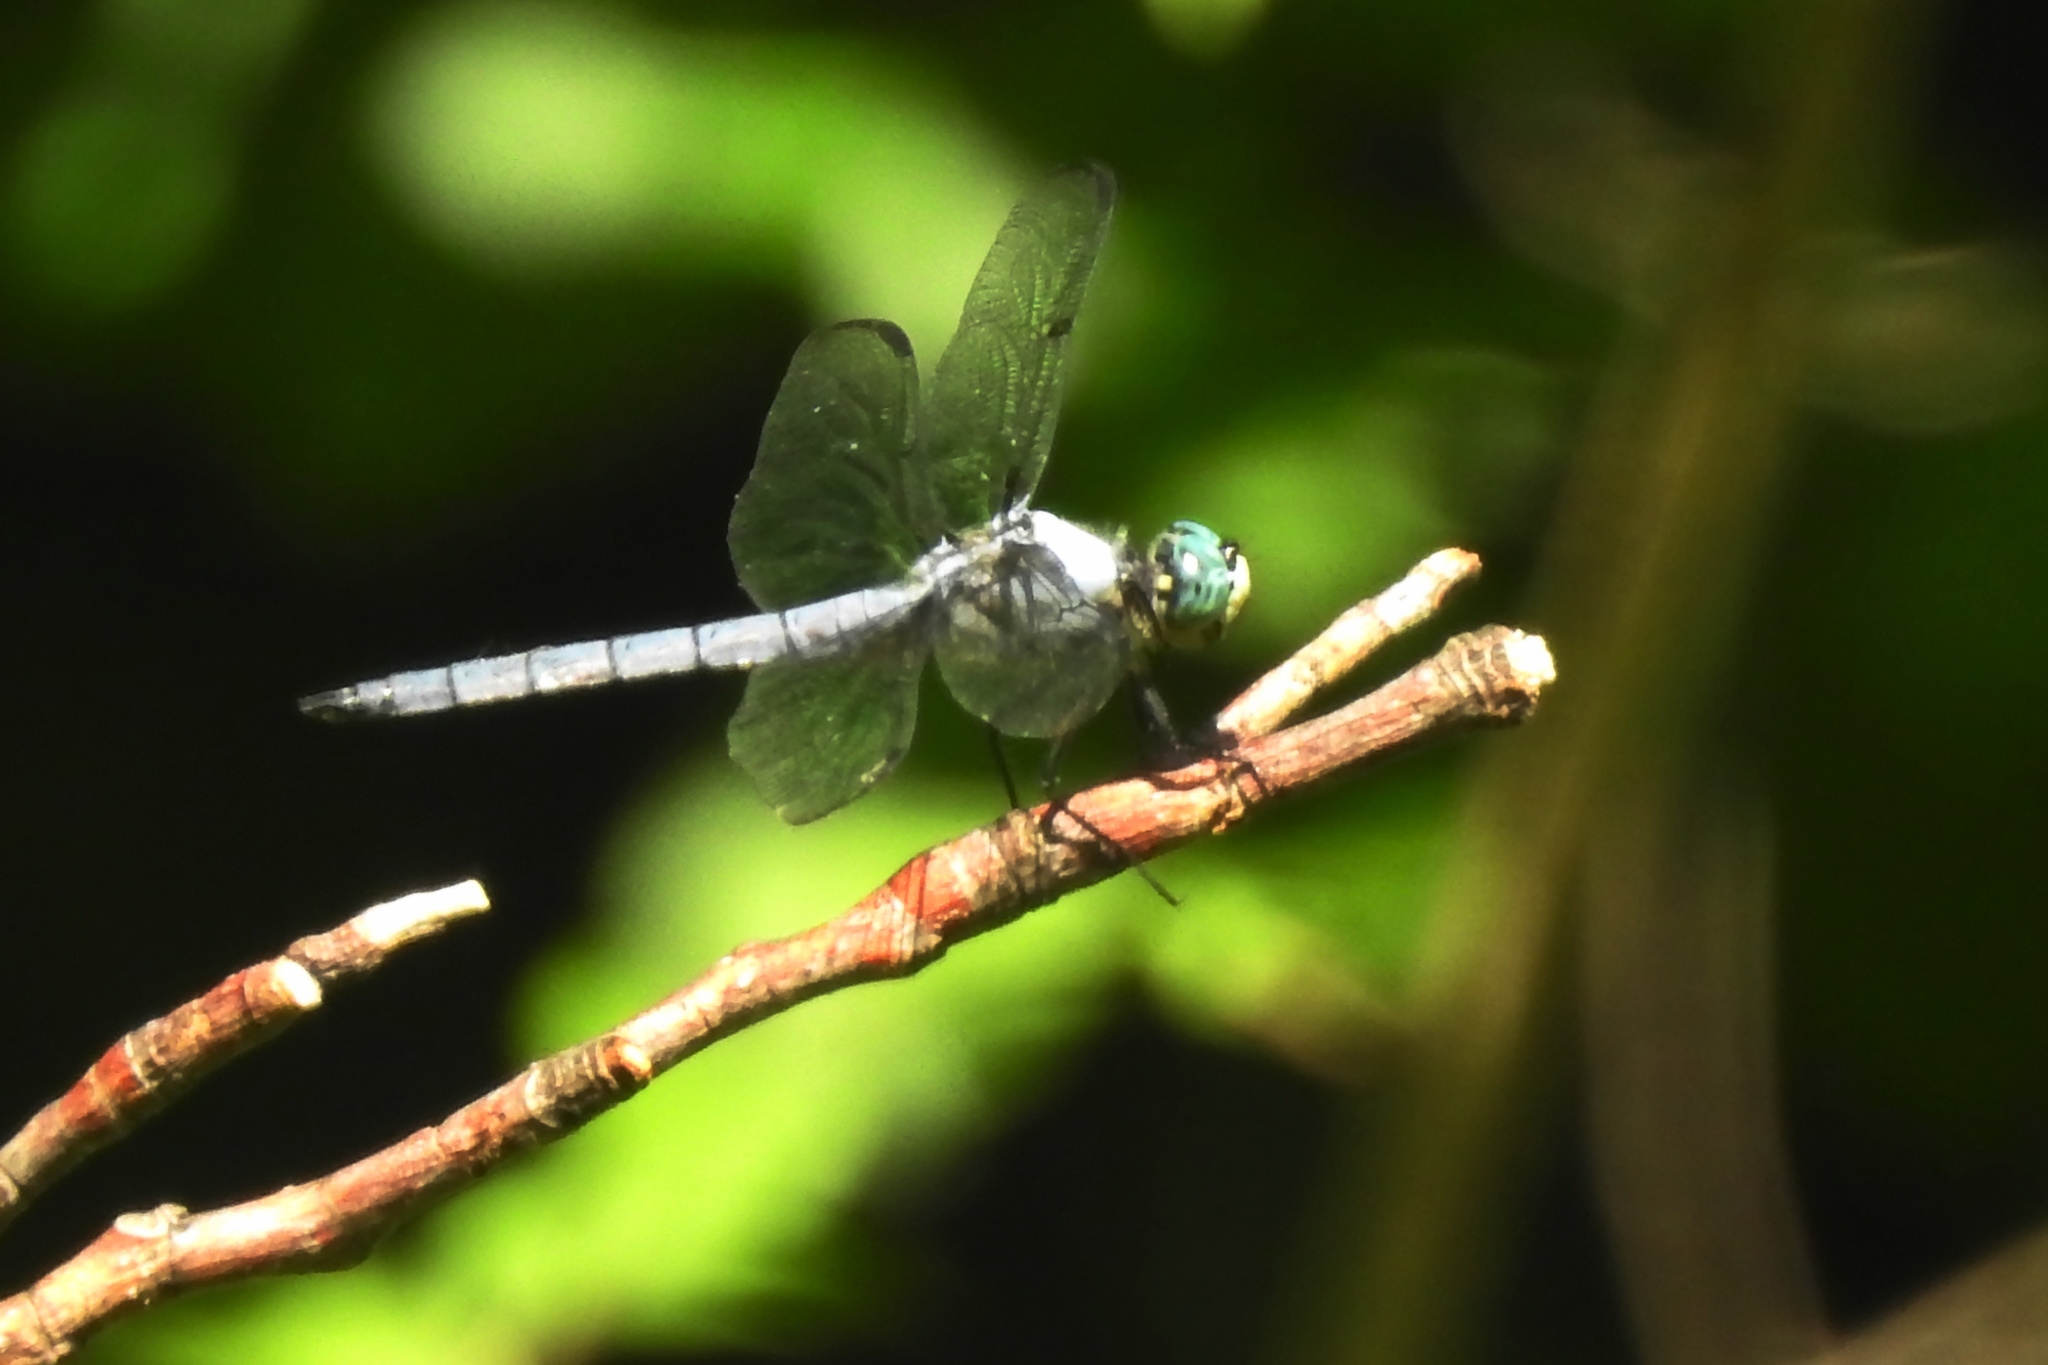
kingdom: Animalia
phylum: Arthropoda
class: Insecta
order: Odonata
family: Libellulidae
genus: Libellula
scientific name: Libellula vibrans
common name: Great blue skimmer
